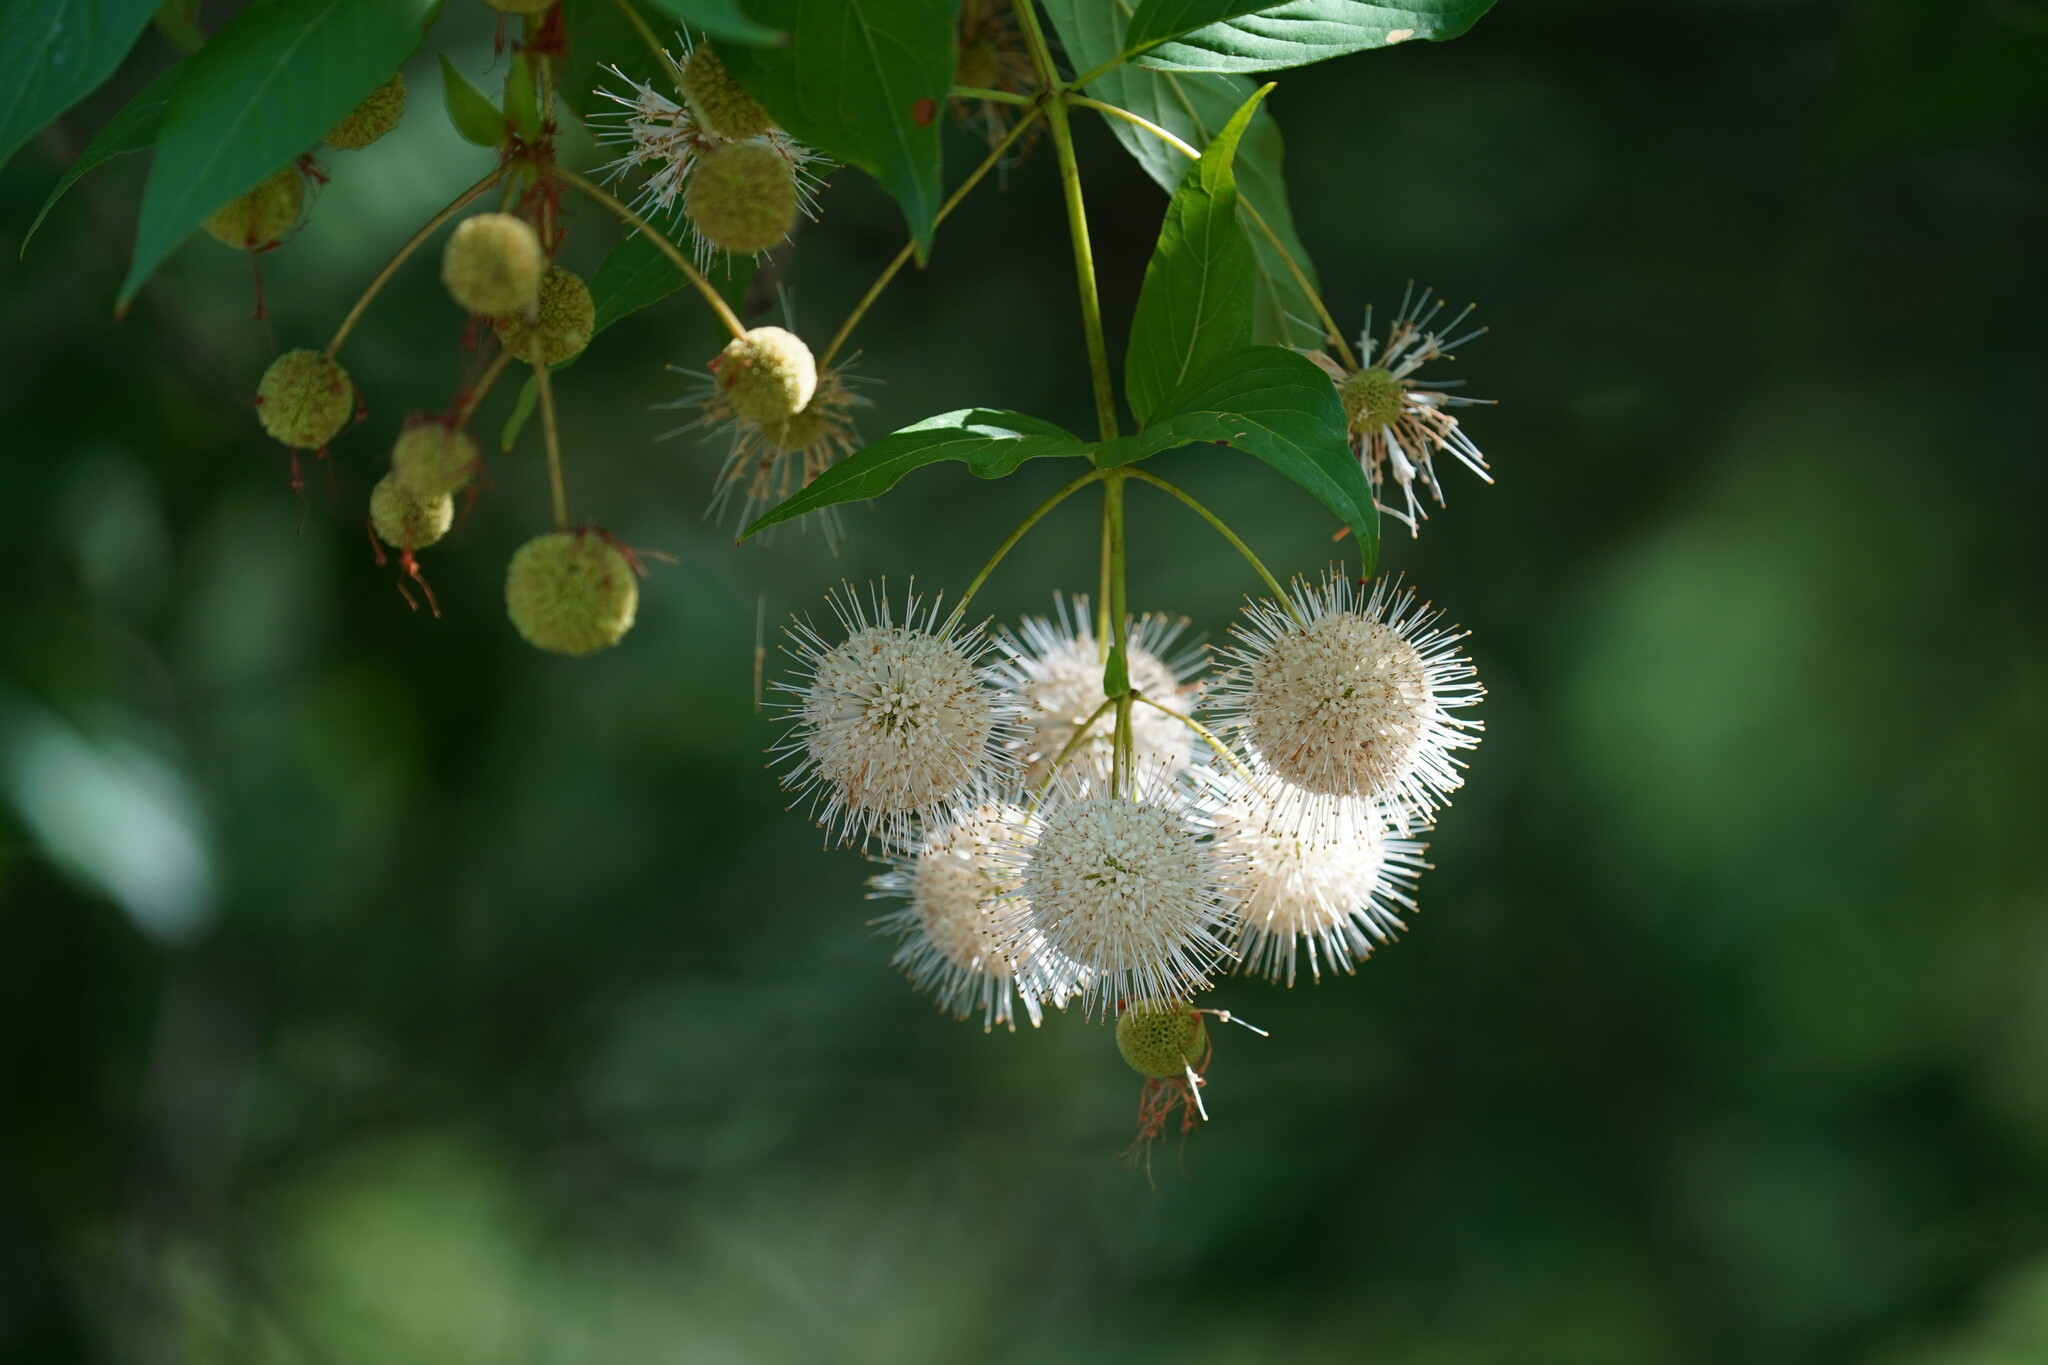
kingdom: Plantae
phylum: Tracheophyta
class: Magnoliopsida
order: Gentianales
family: Rubiaceae
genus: Cephalanthus
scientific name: Cephalanthus occidentalis
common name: Button-willow
